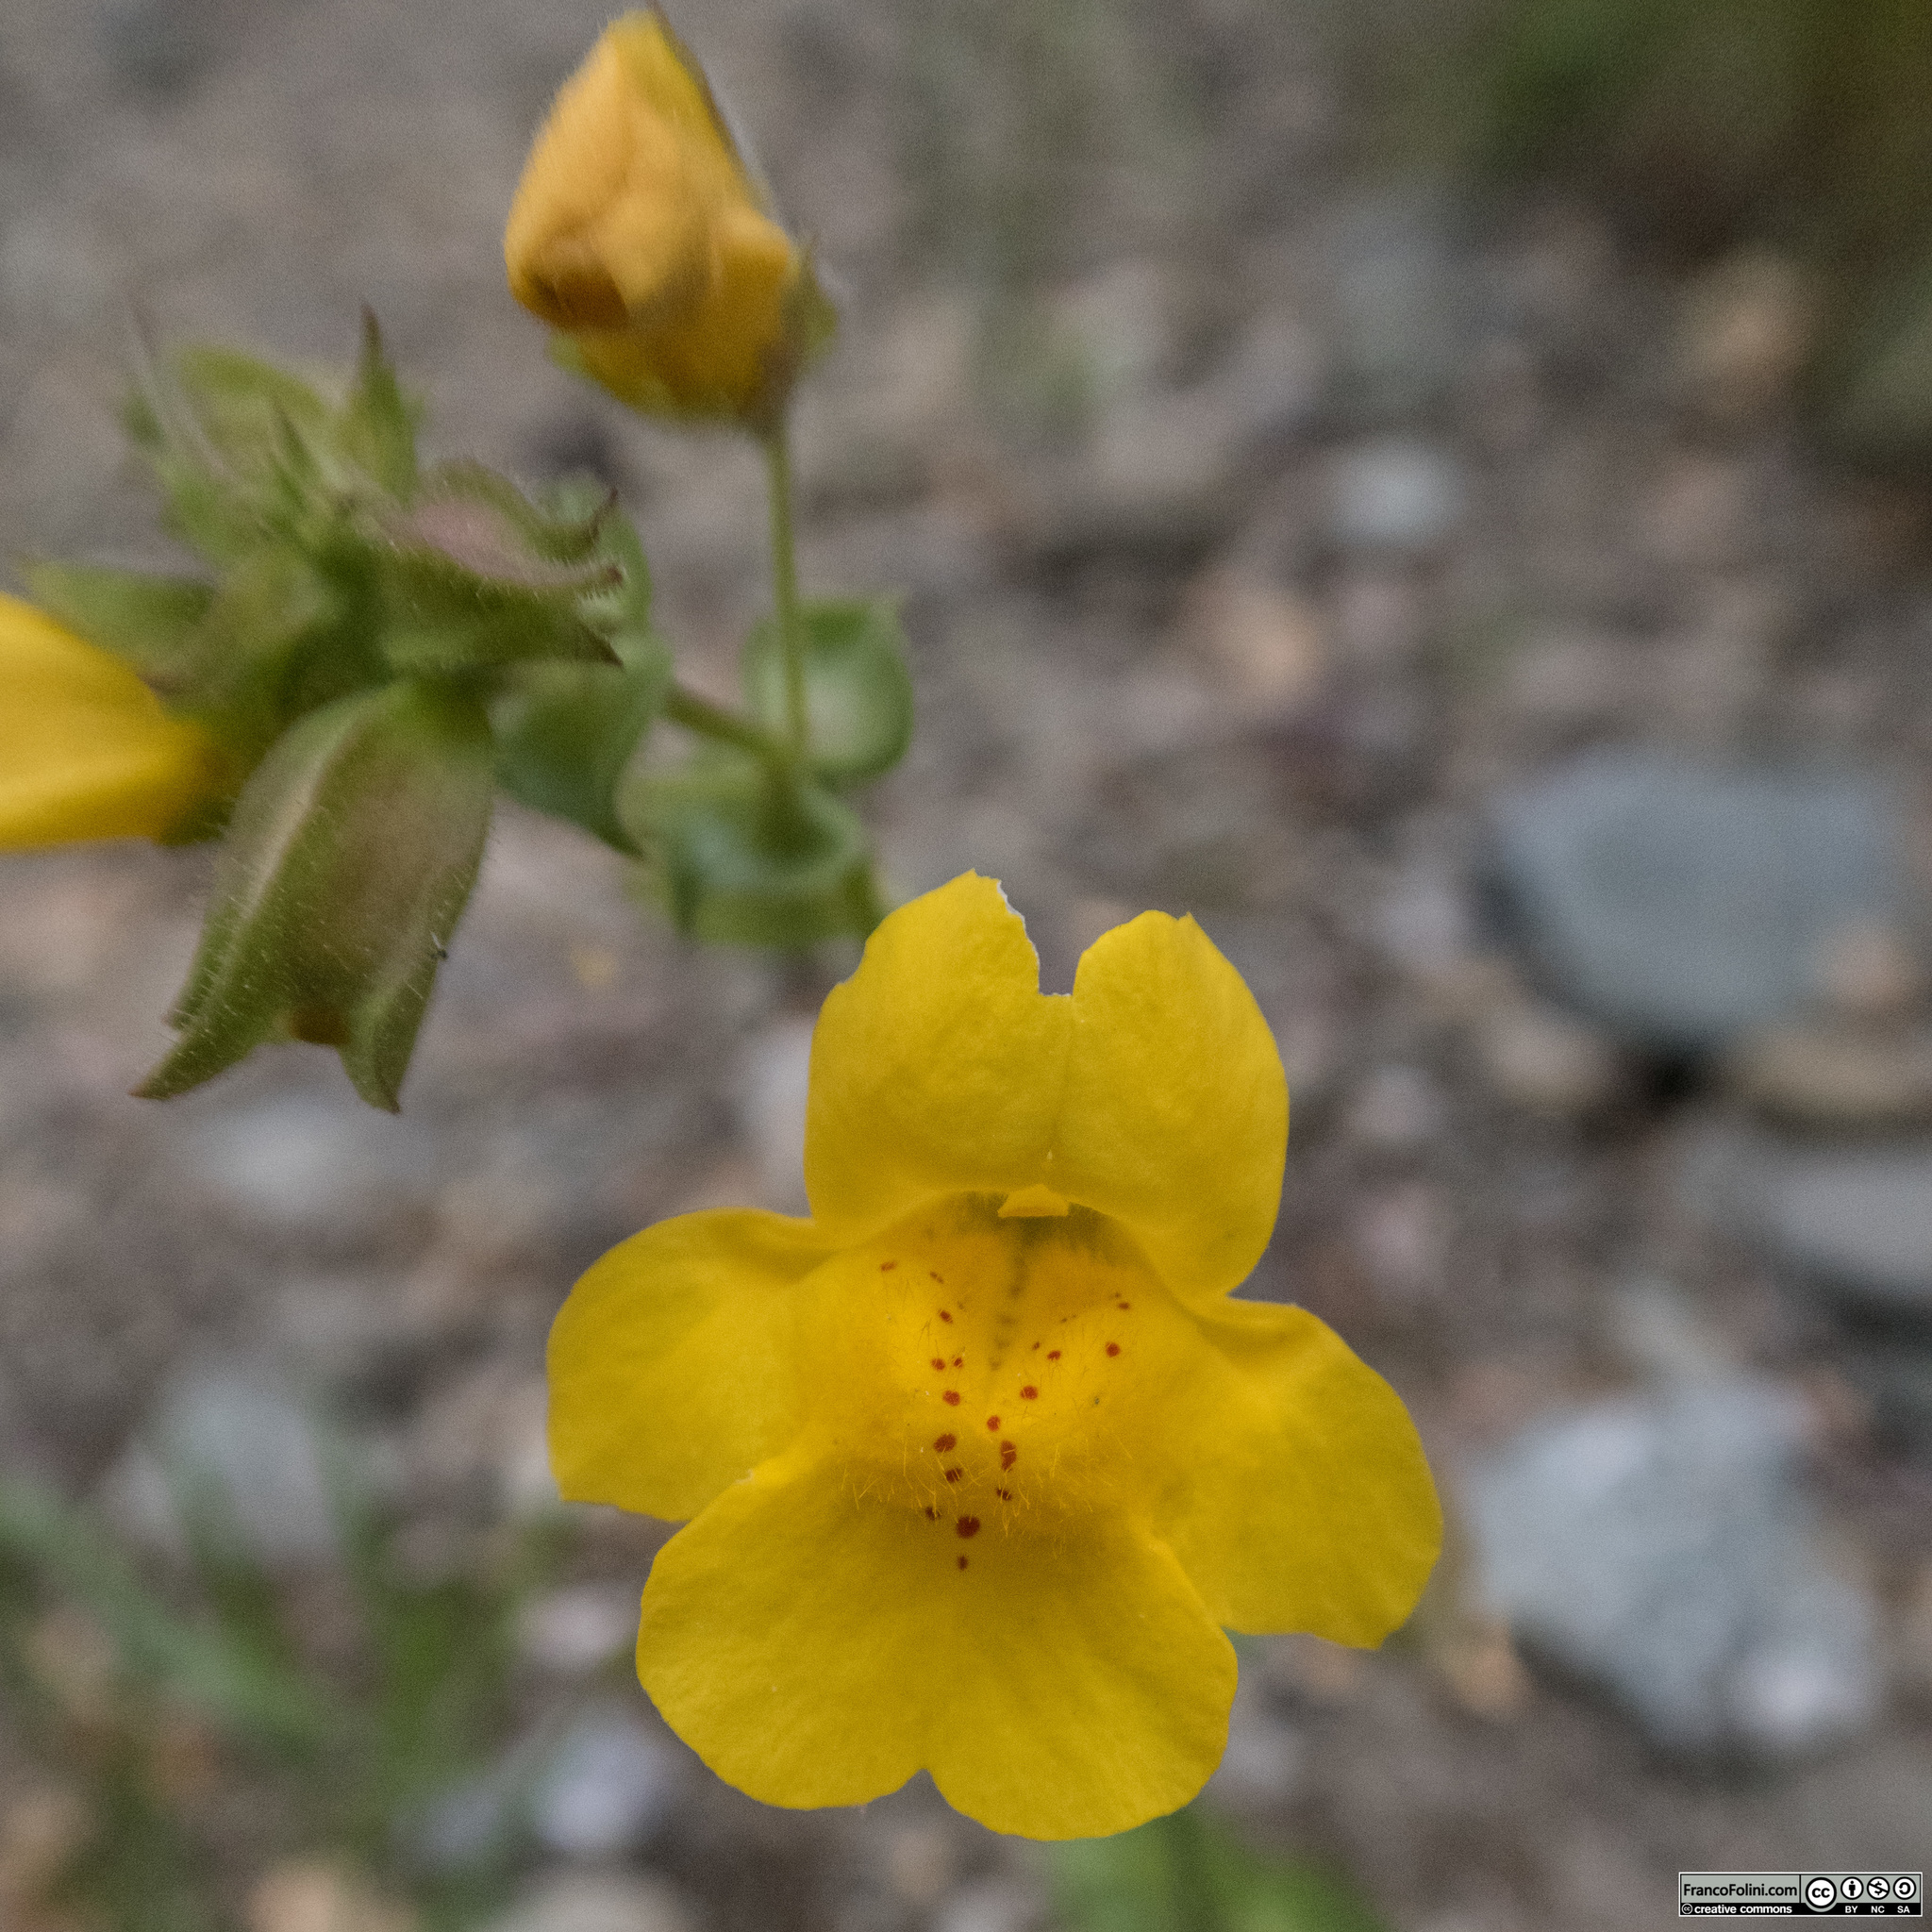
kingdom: Plantae
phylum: Tracheophyta
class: Magnoliopsida
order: Lamiales
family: Phrymaceae
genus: Erythranthe
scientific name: Erythranthe guttata
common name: Monkeyflower
